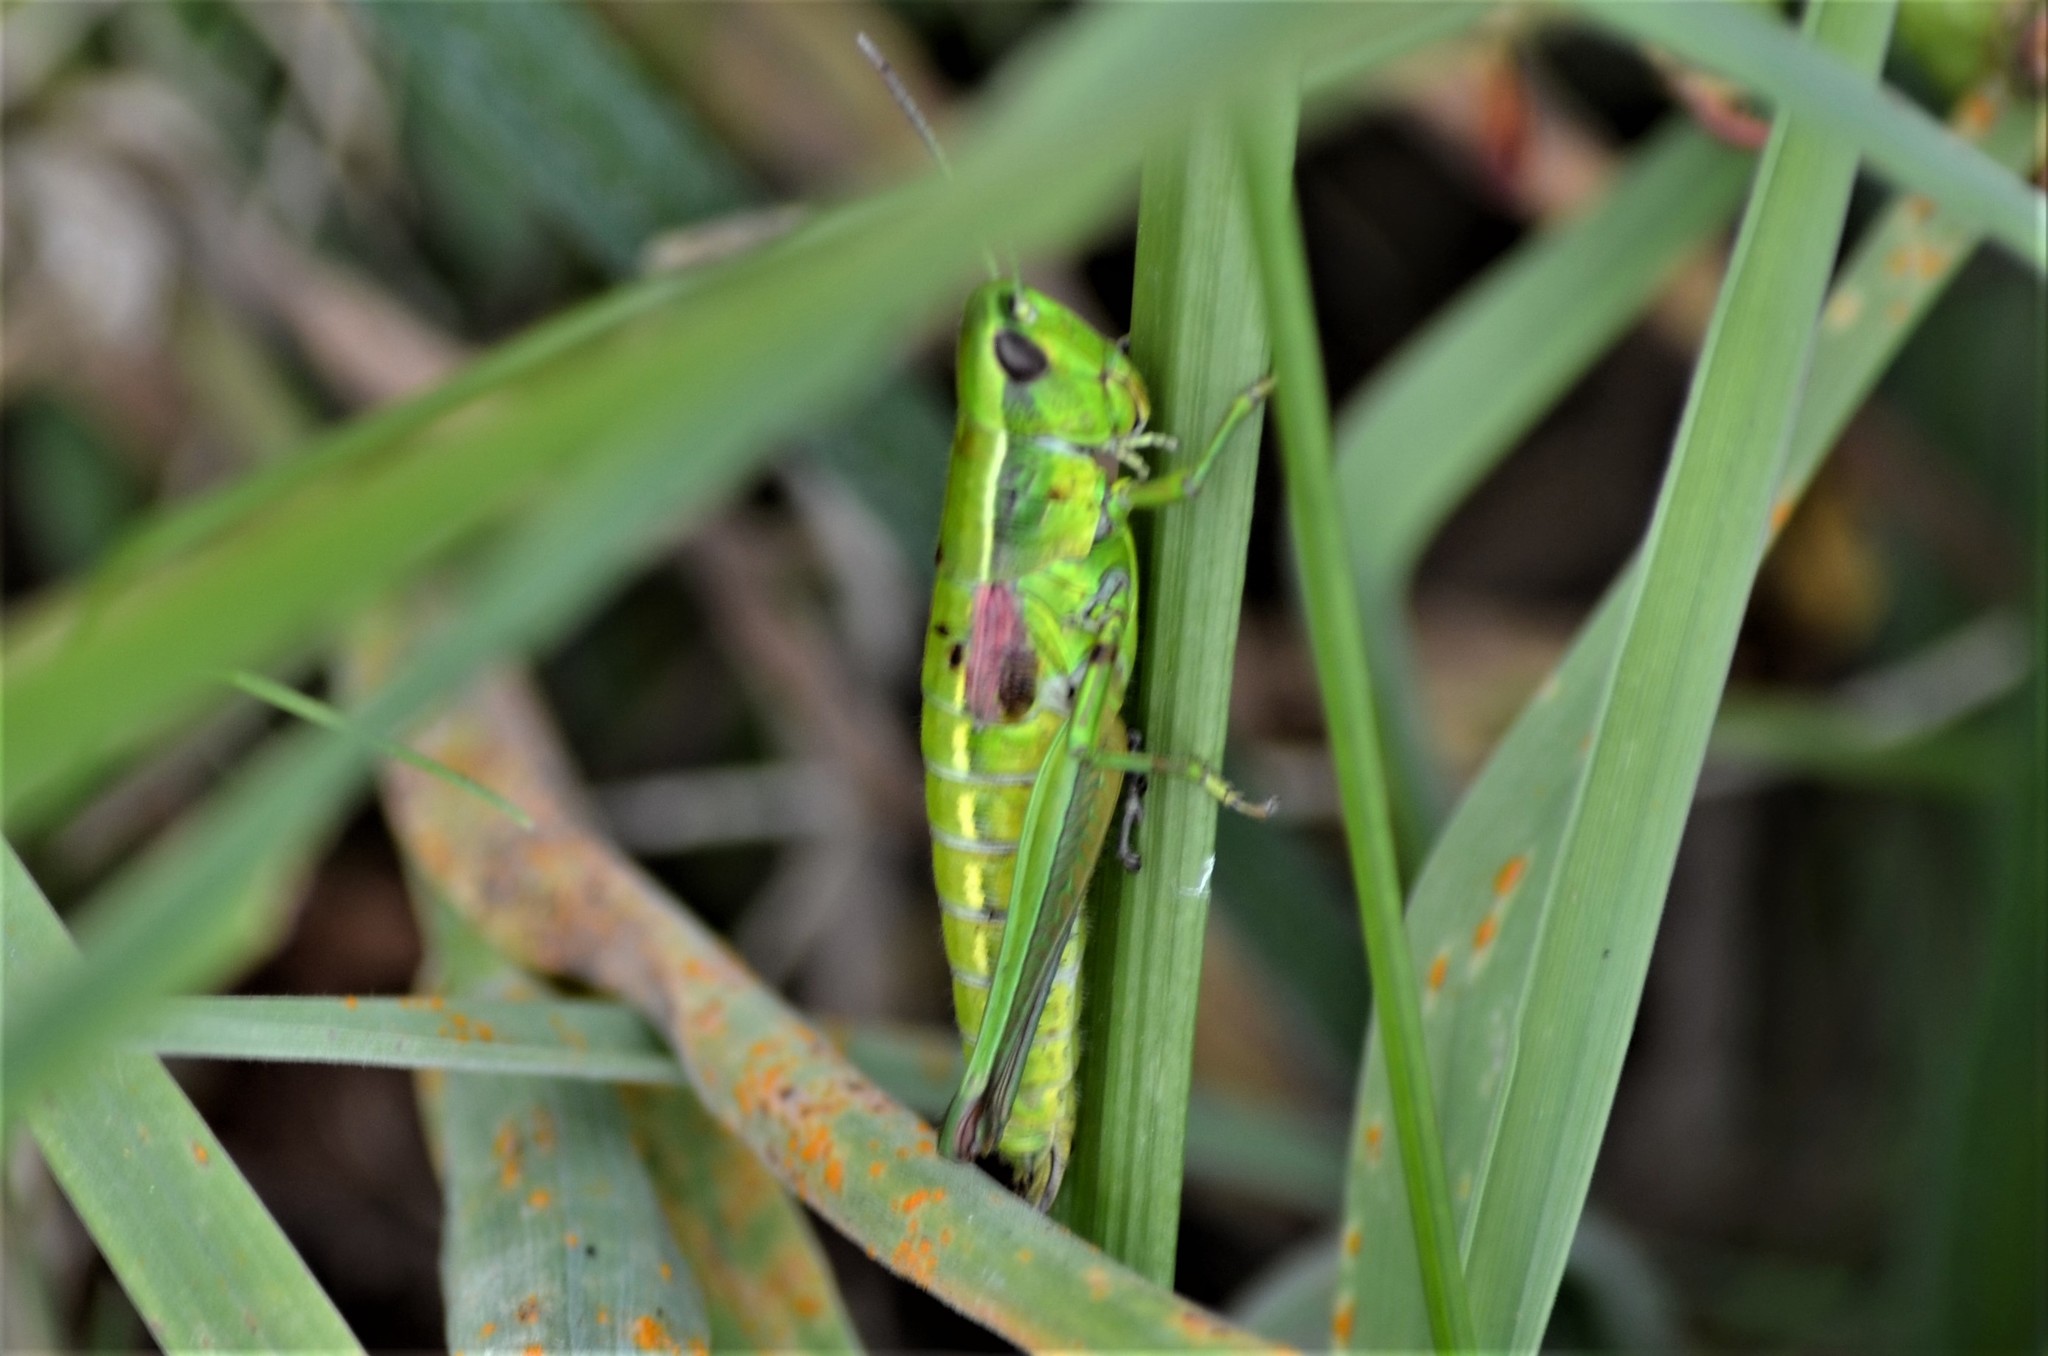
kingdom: Animalia
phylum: Arthropoda
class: Insecta
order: Orthoptera
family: Acrididae
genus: Euthystira
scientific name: Euthystira brachyptera
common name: Small gold grasshopper
